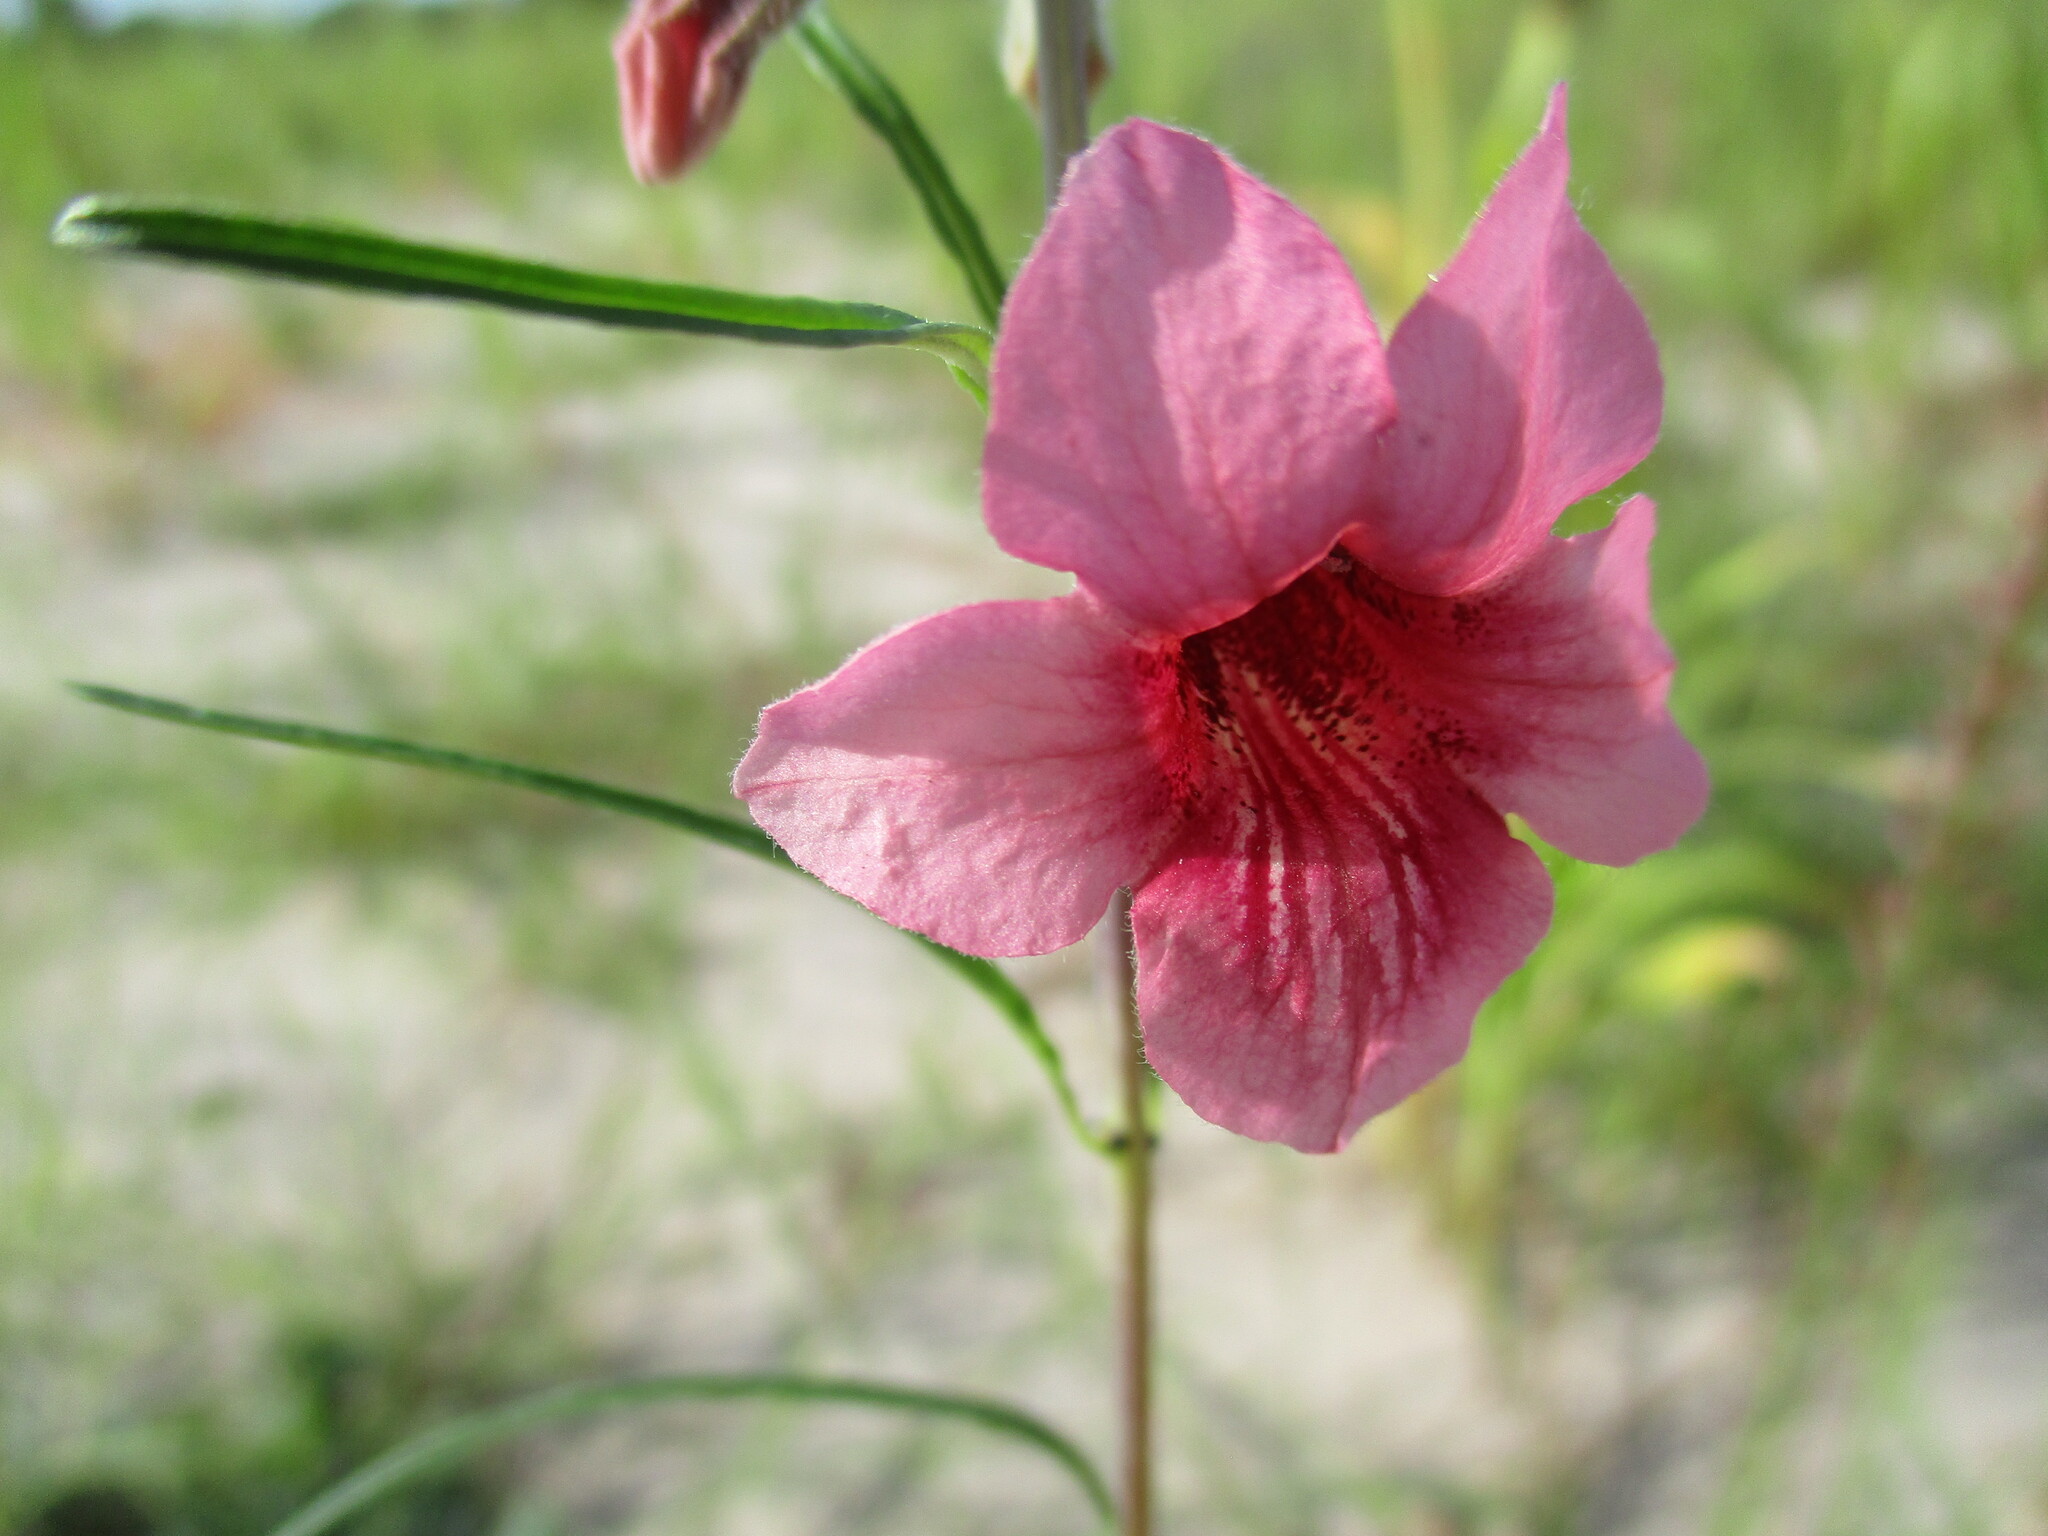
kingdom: Plantae
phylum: Tracheophyta
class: Magnoliopsida
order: Lamiales
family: Pedaliaceae
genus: Sesamum
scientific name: Sesamum alatum
